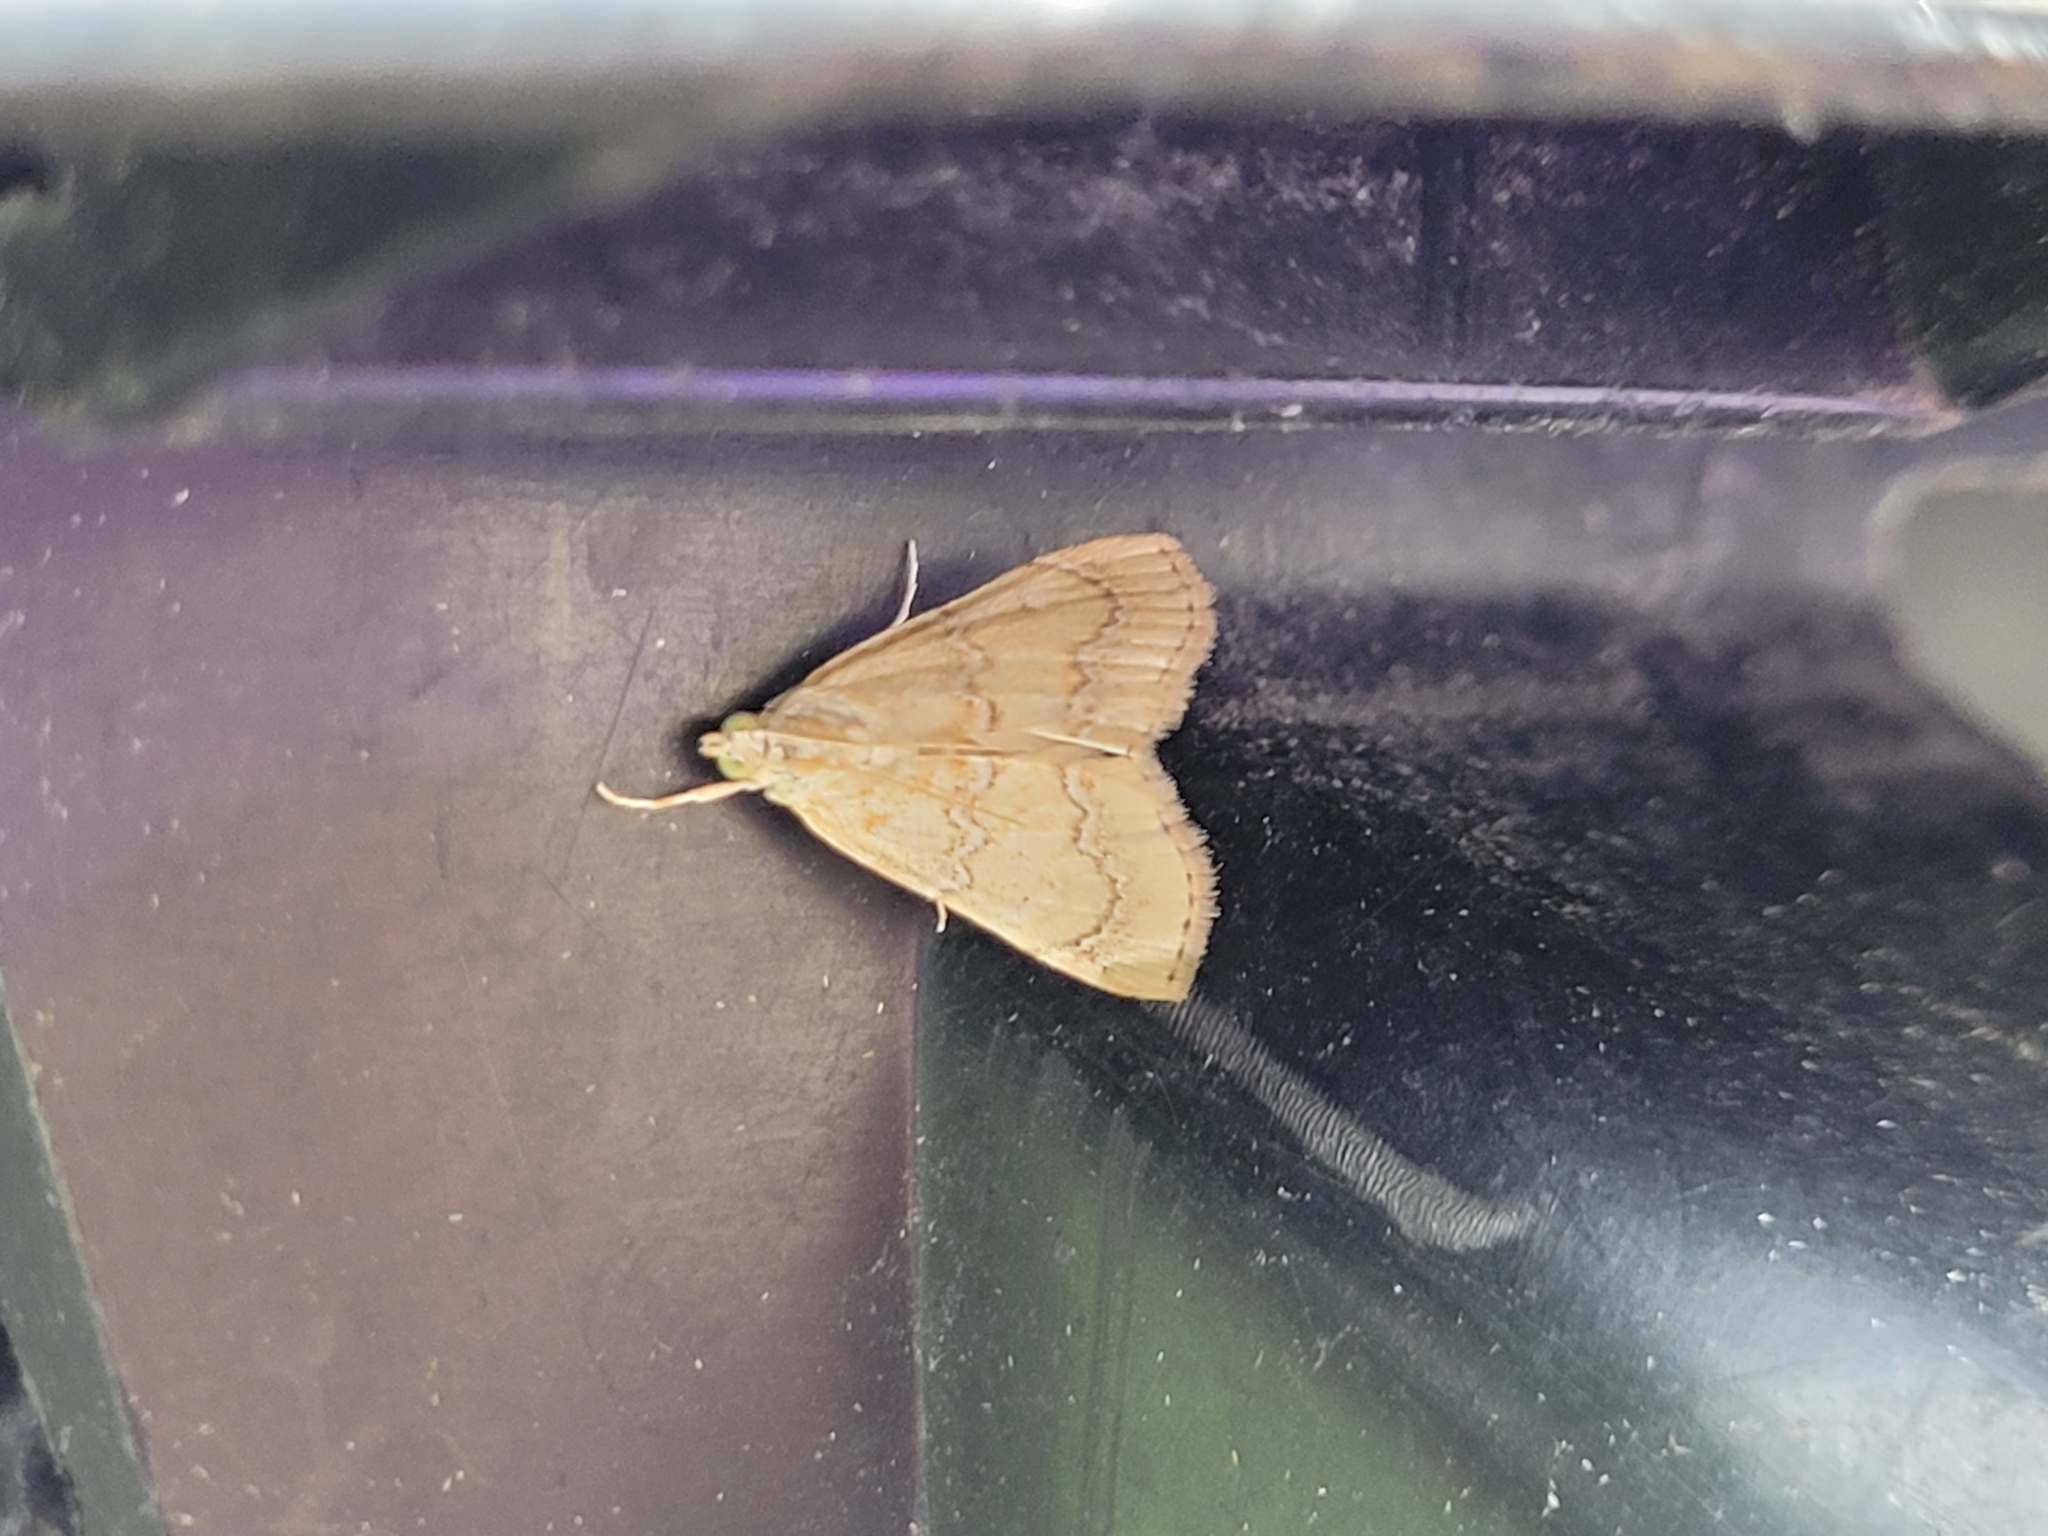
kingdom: Animalia
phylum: Arthropoda
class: Insecta
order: Lepidoptera
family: Crambidae
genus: Glaphyria
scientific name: Glaphyria sesquistrialis
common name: White-roped glaphyria
